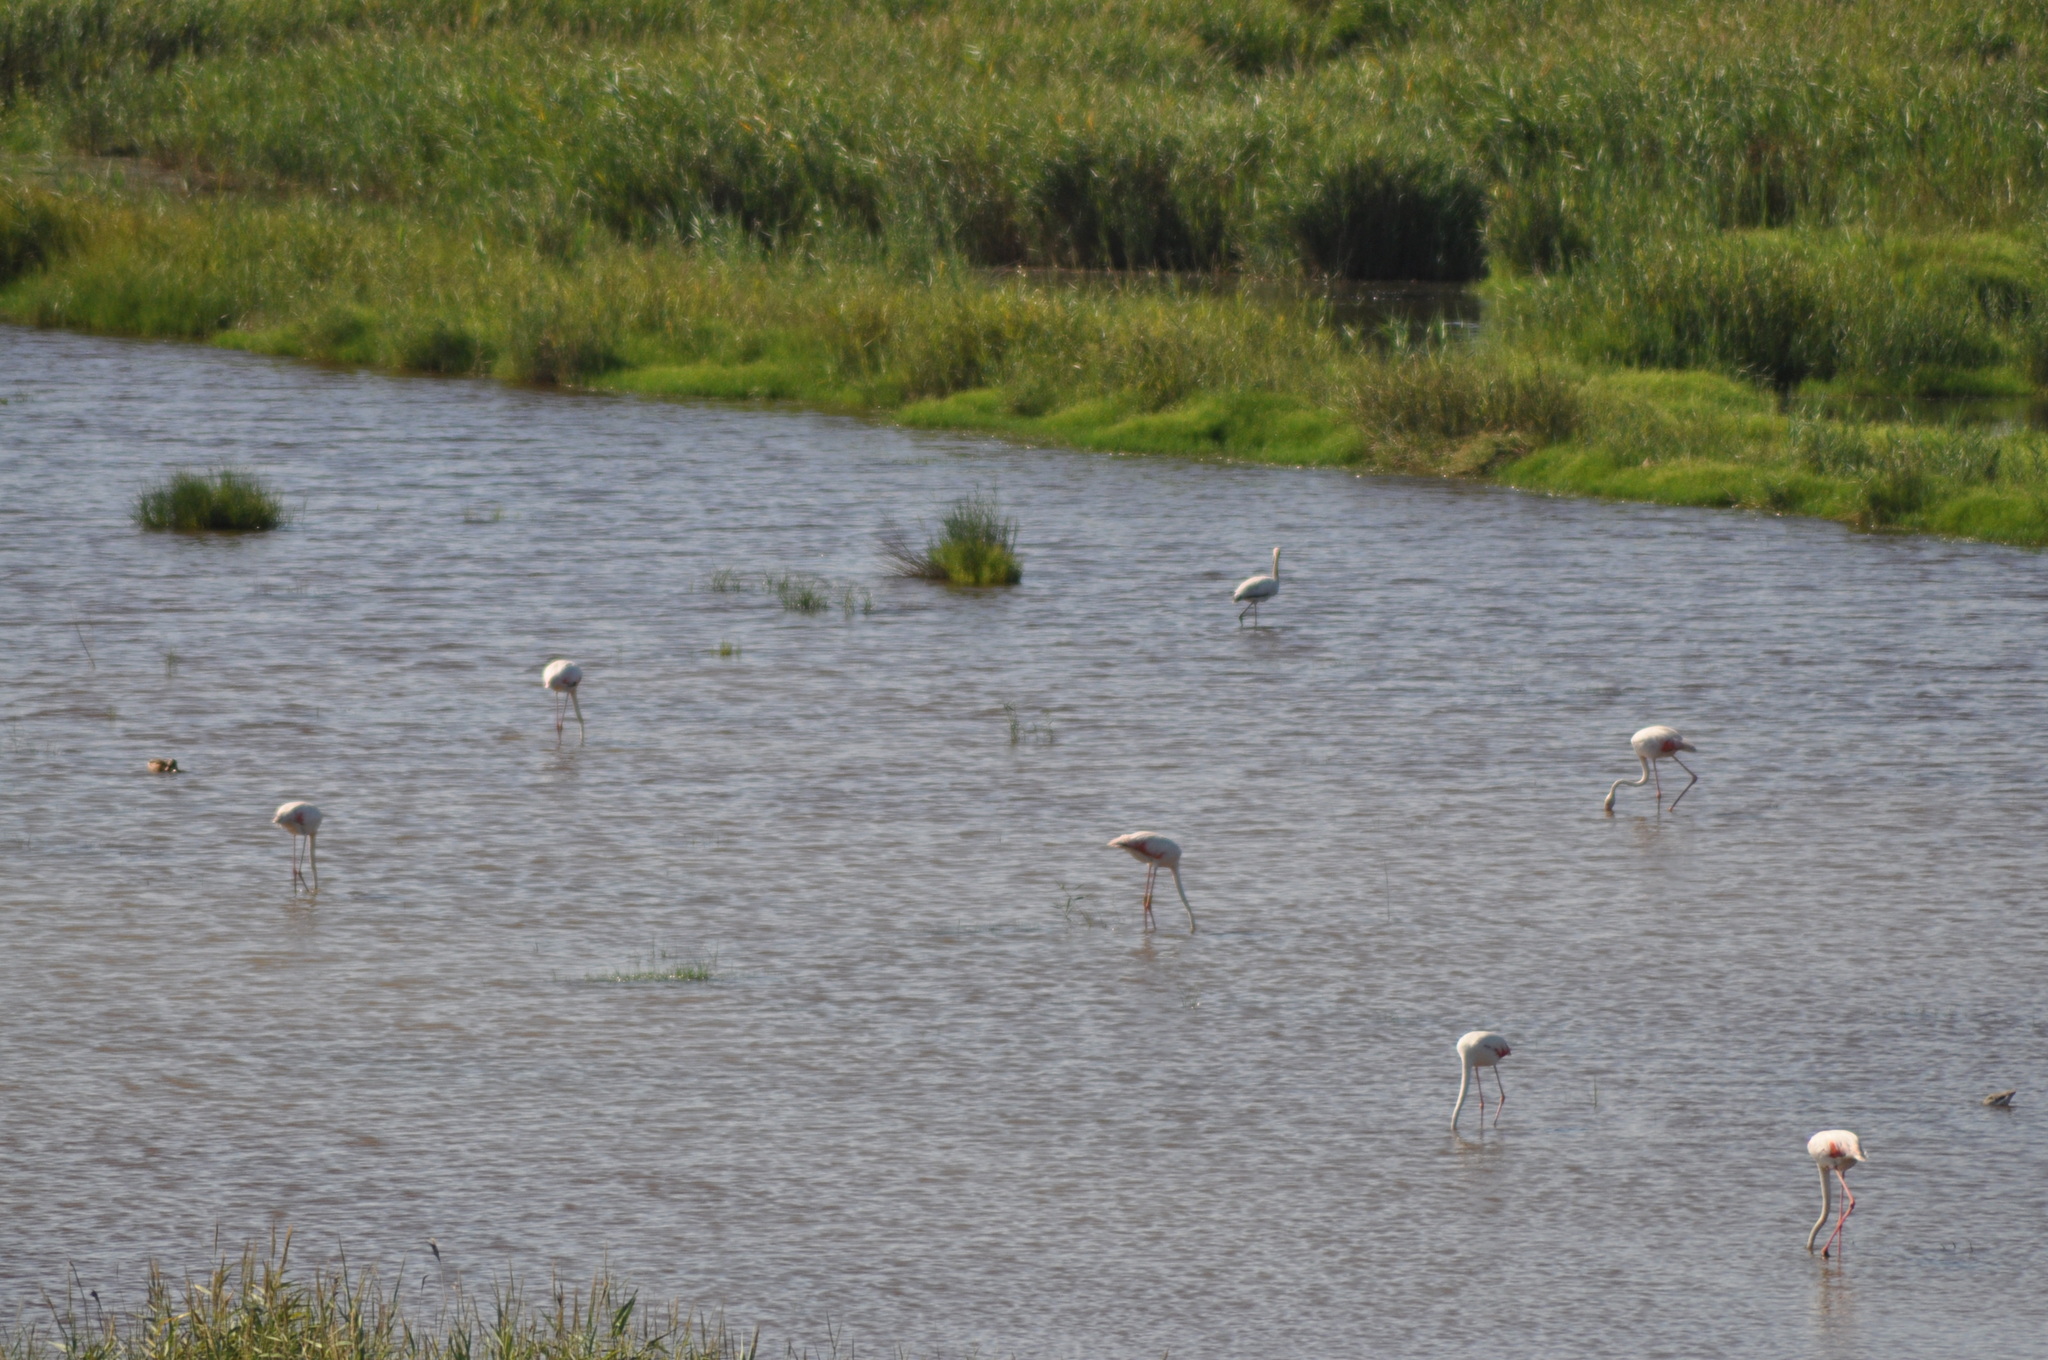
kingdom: Animalia
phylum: Chordata
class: Aves
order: Phoenicopteriformes
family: Phoenicopteridae
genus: Phoenicopterus
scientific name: Phoenicopterus roseus
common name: Greater flamingo
